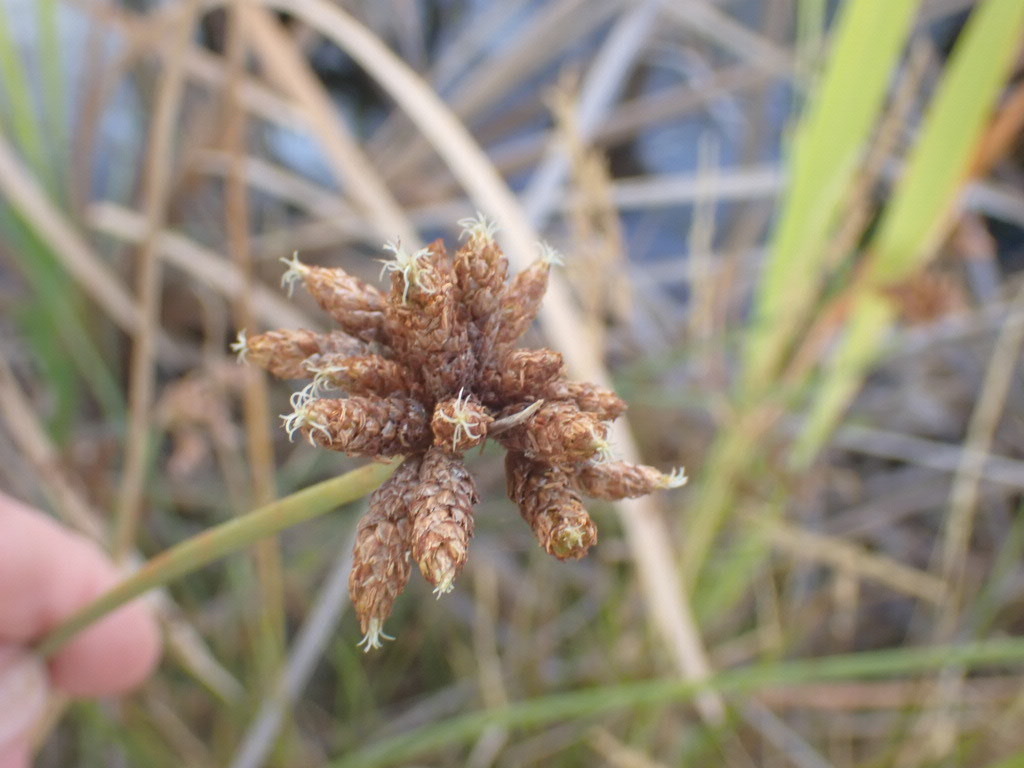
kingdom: Plantae
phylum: Tracheophyta
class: Liliopsida
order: Poales
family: Cyperaceae
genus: Schoenoplectus
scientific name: Schoenoplectus tabernaemontani
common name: Grey club-rush
